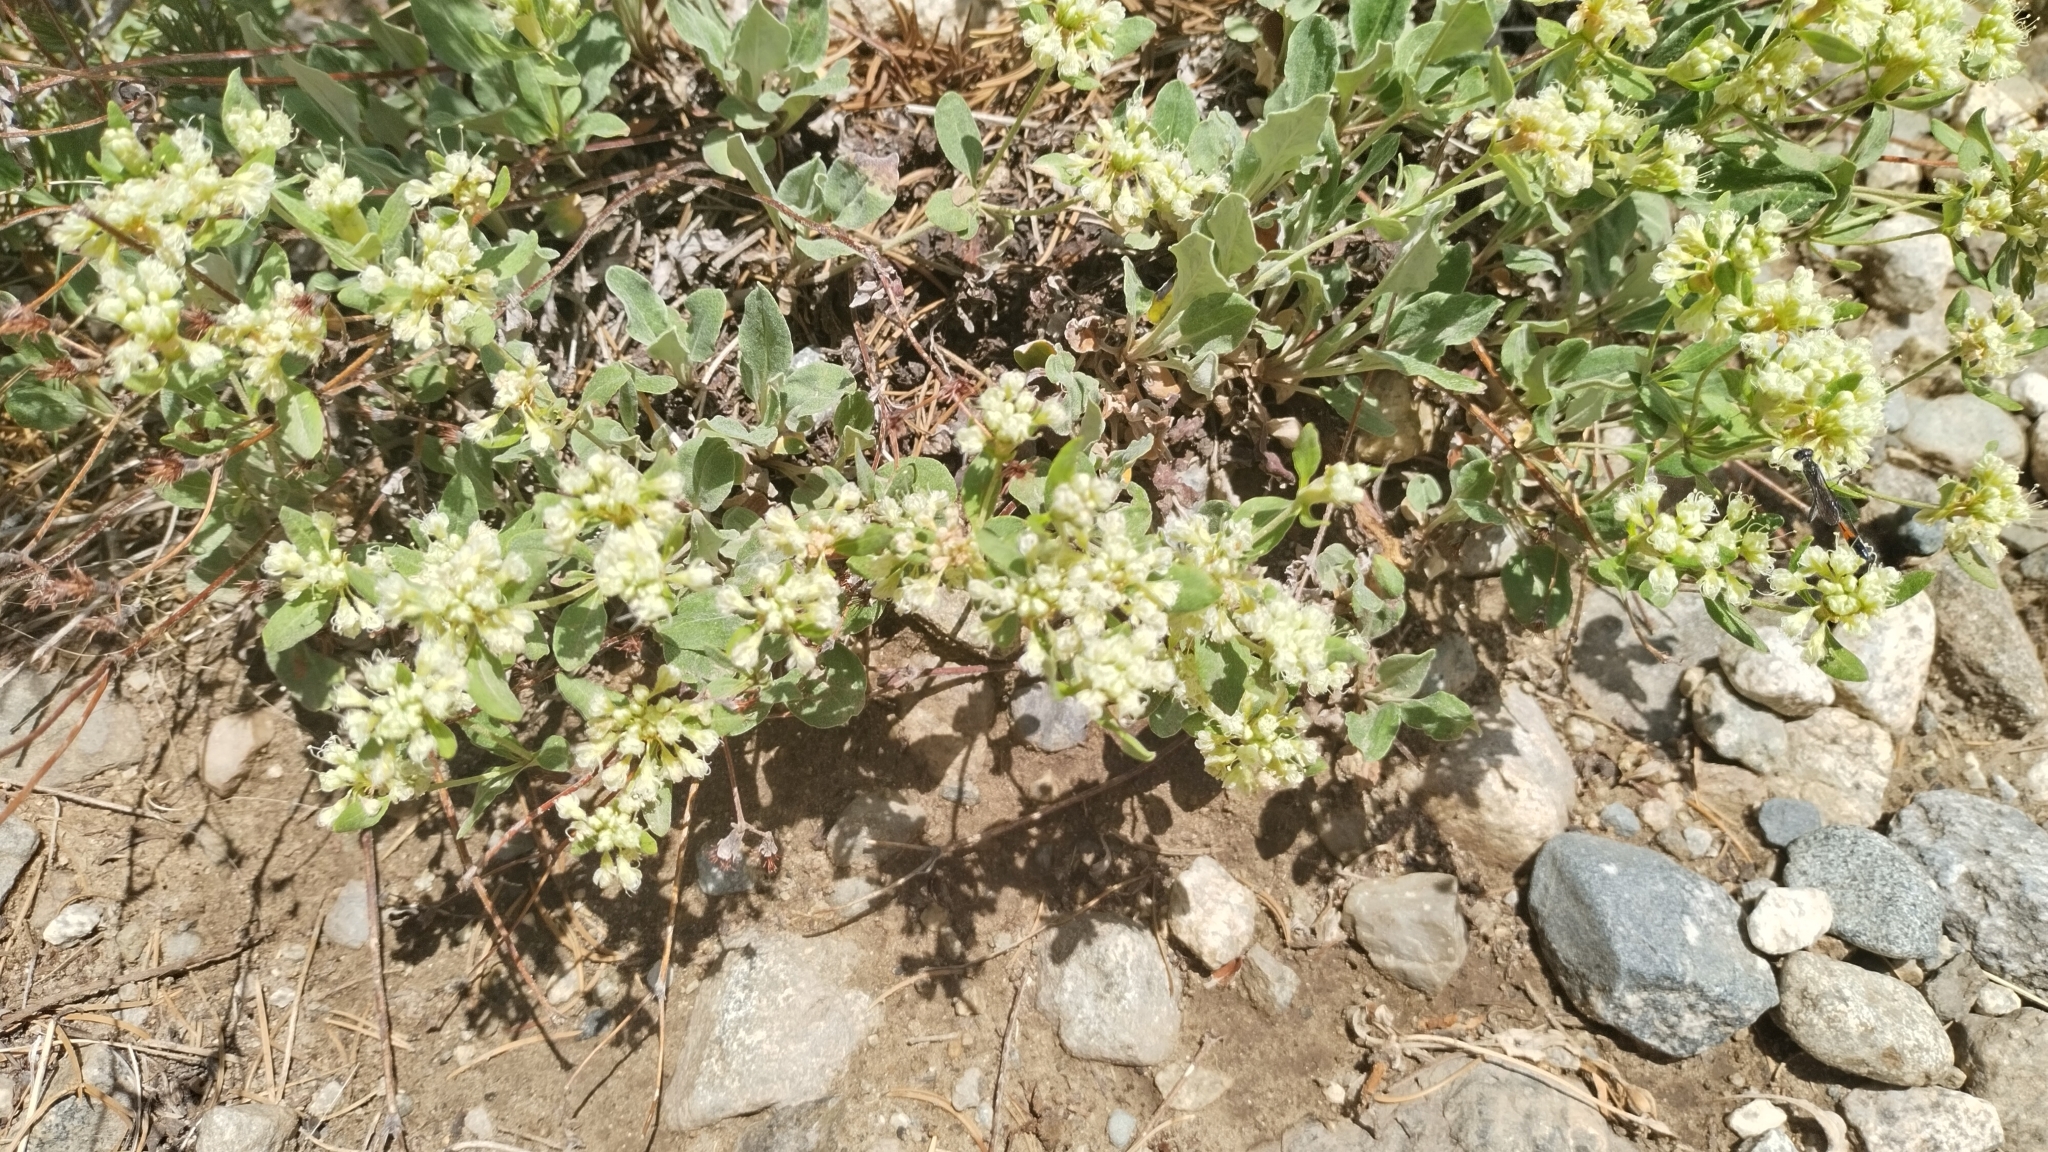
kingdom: Plantae
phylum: Tracheophyta
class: Magnoliopsida
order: Caryophyllales
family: Polygonaceae
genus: Eriogonum
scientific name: Eriogonum jamesii
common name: Antelope-sage
